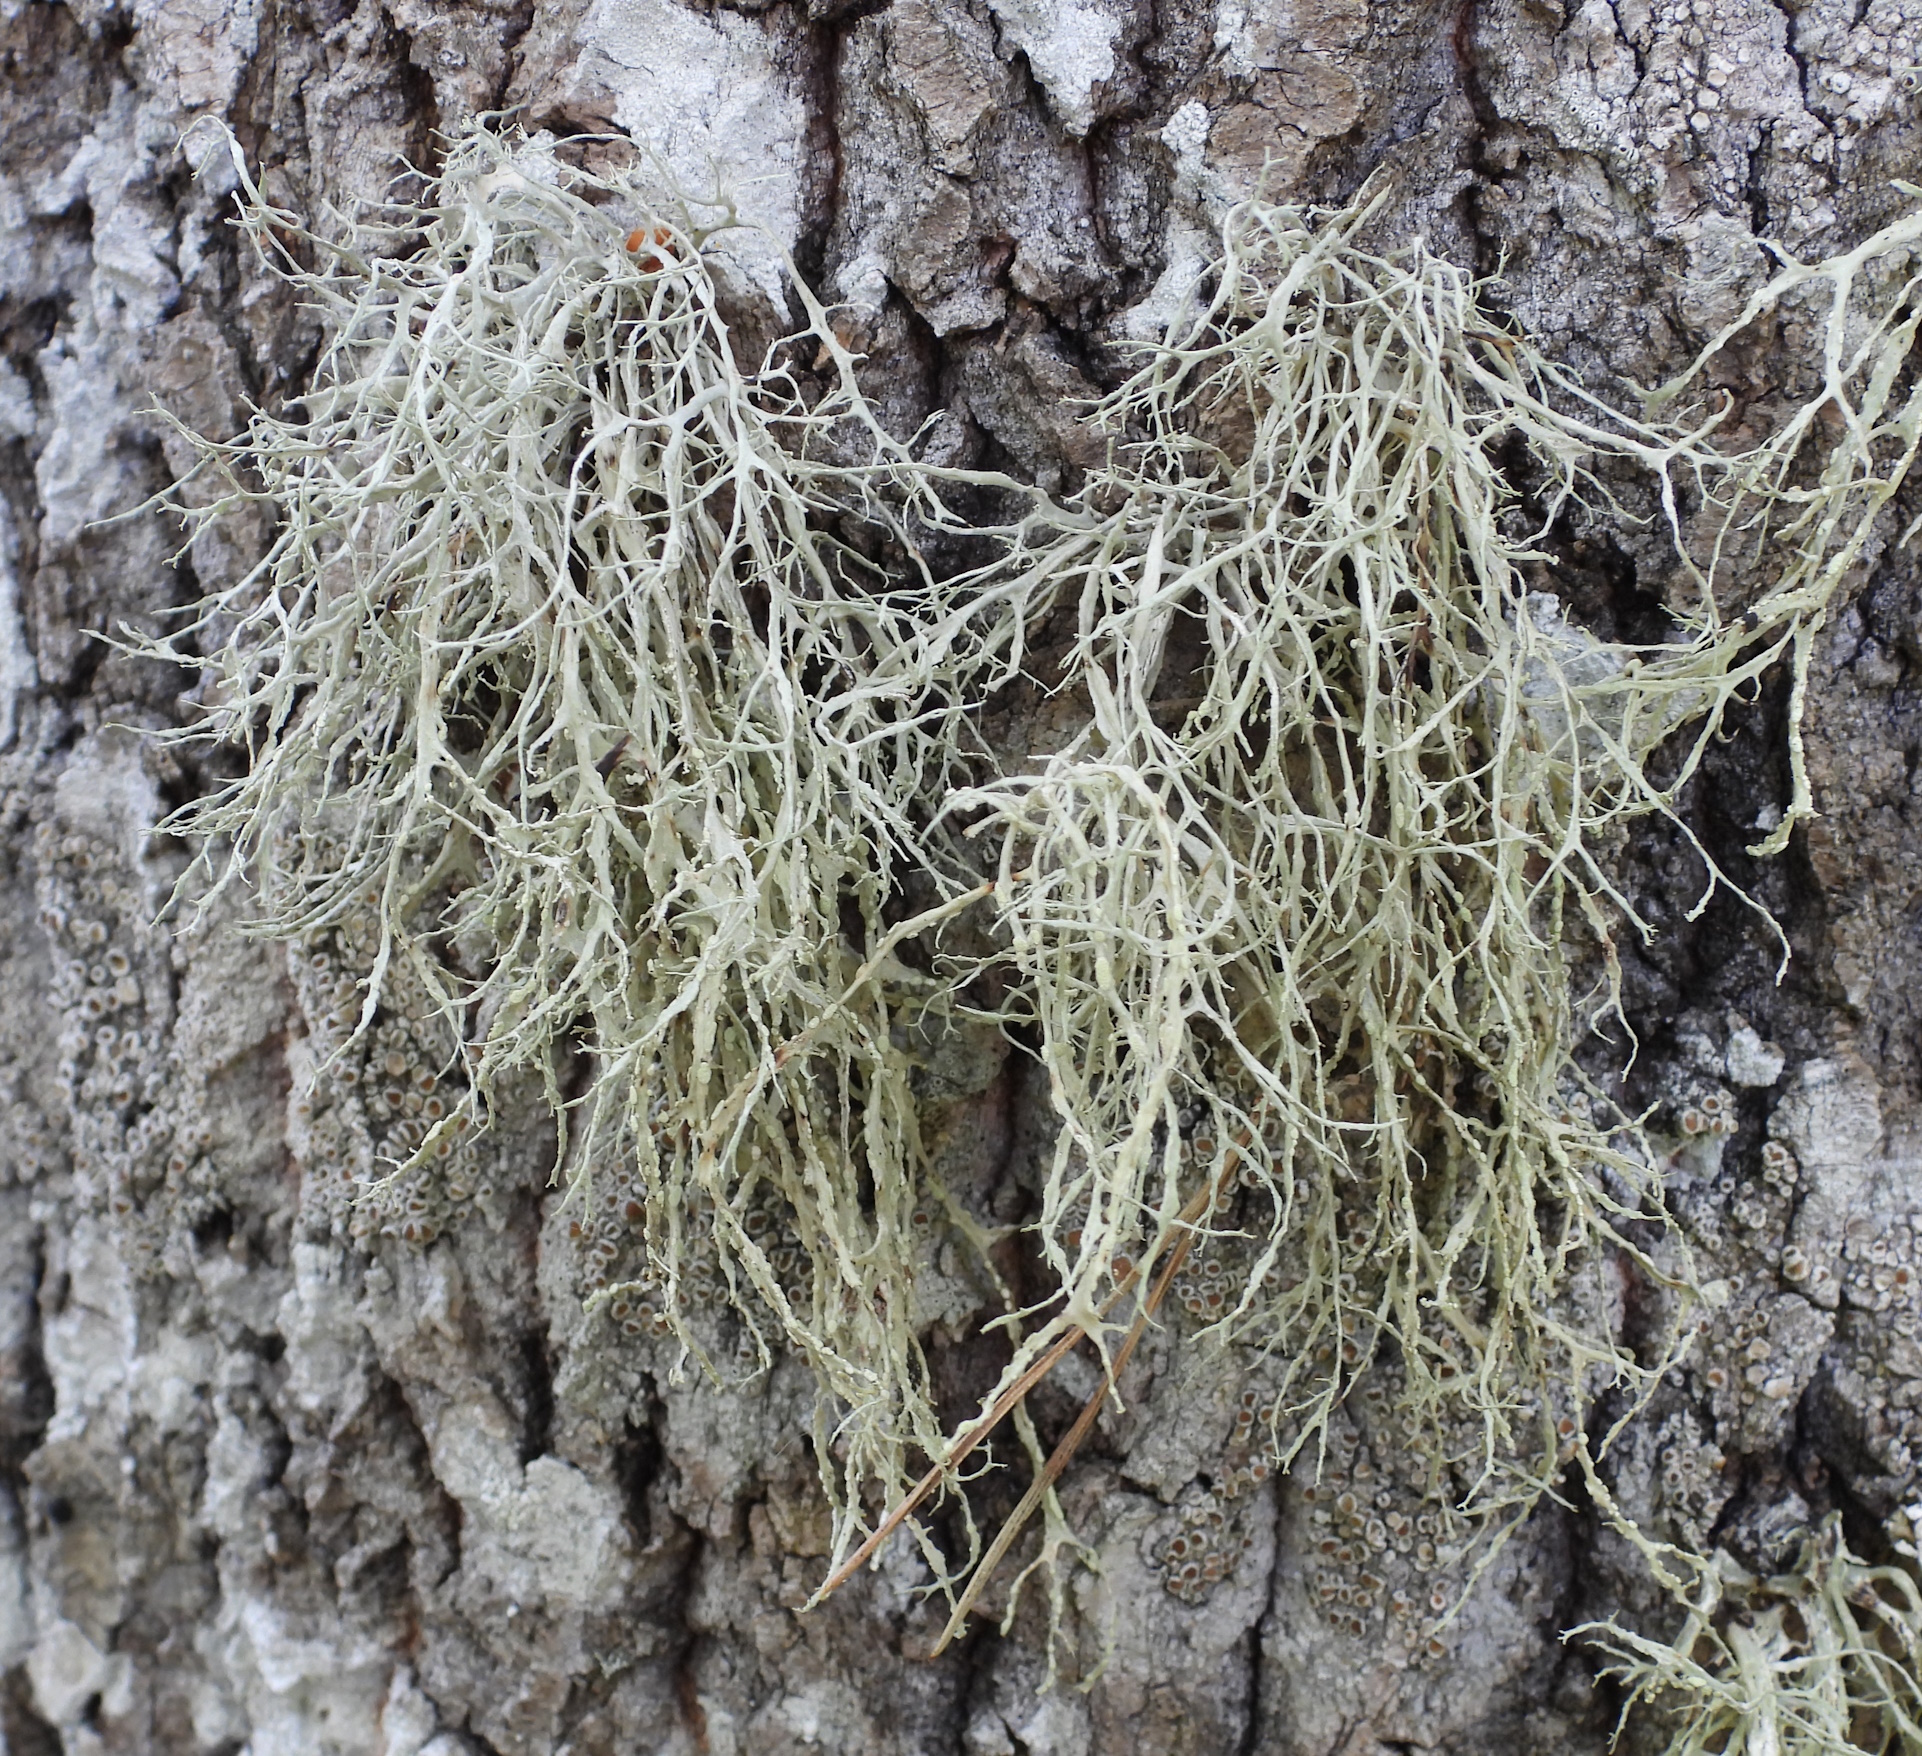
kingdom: Fungi
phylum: Ascomycota
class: Lecanoromycetes
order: Lecanorales
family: Ramalinaceae
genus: Ramalina
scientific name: Ramalina farinacea
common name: Farinose cartilage lichen
